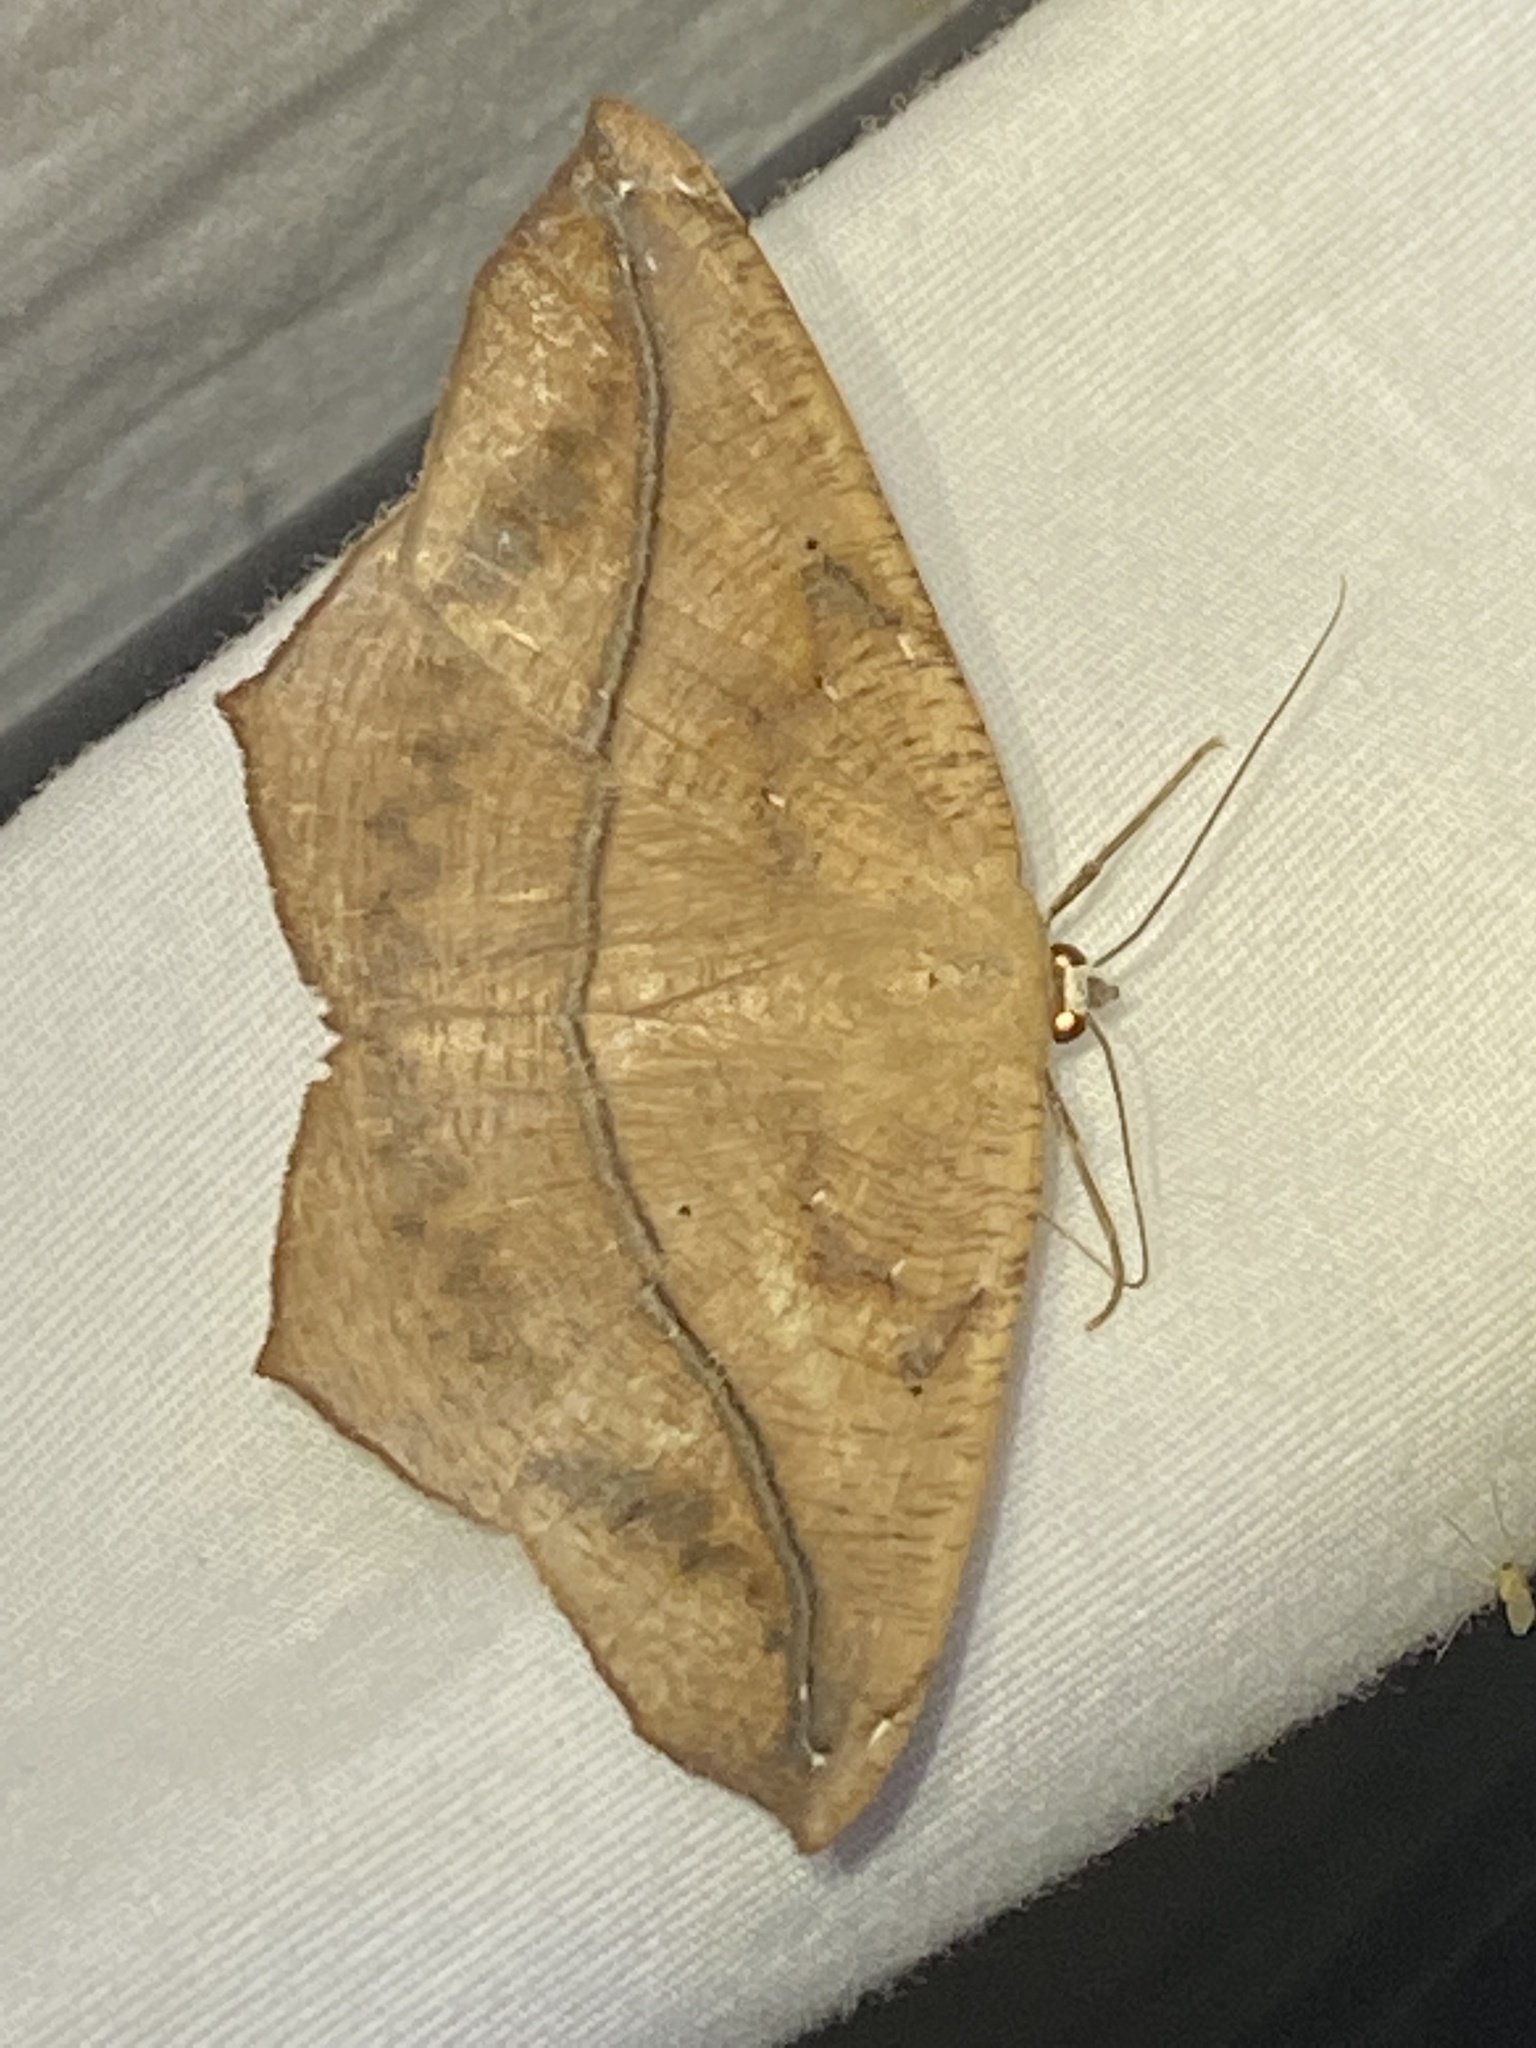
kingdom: Animalia
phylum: Arthropoda
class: Insecta
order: Lepidoptera
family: Geometridae
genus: Prochoerodes
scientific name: Prochoerodes lineola
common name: Large maple spanworm
